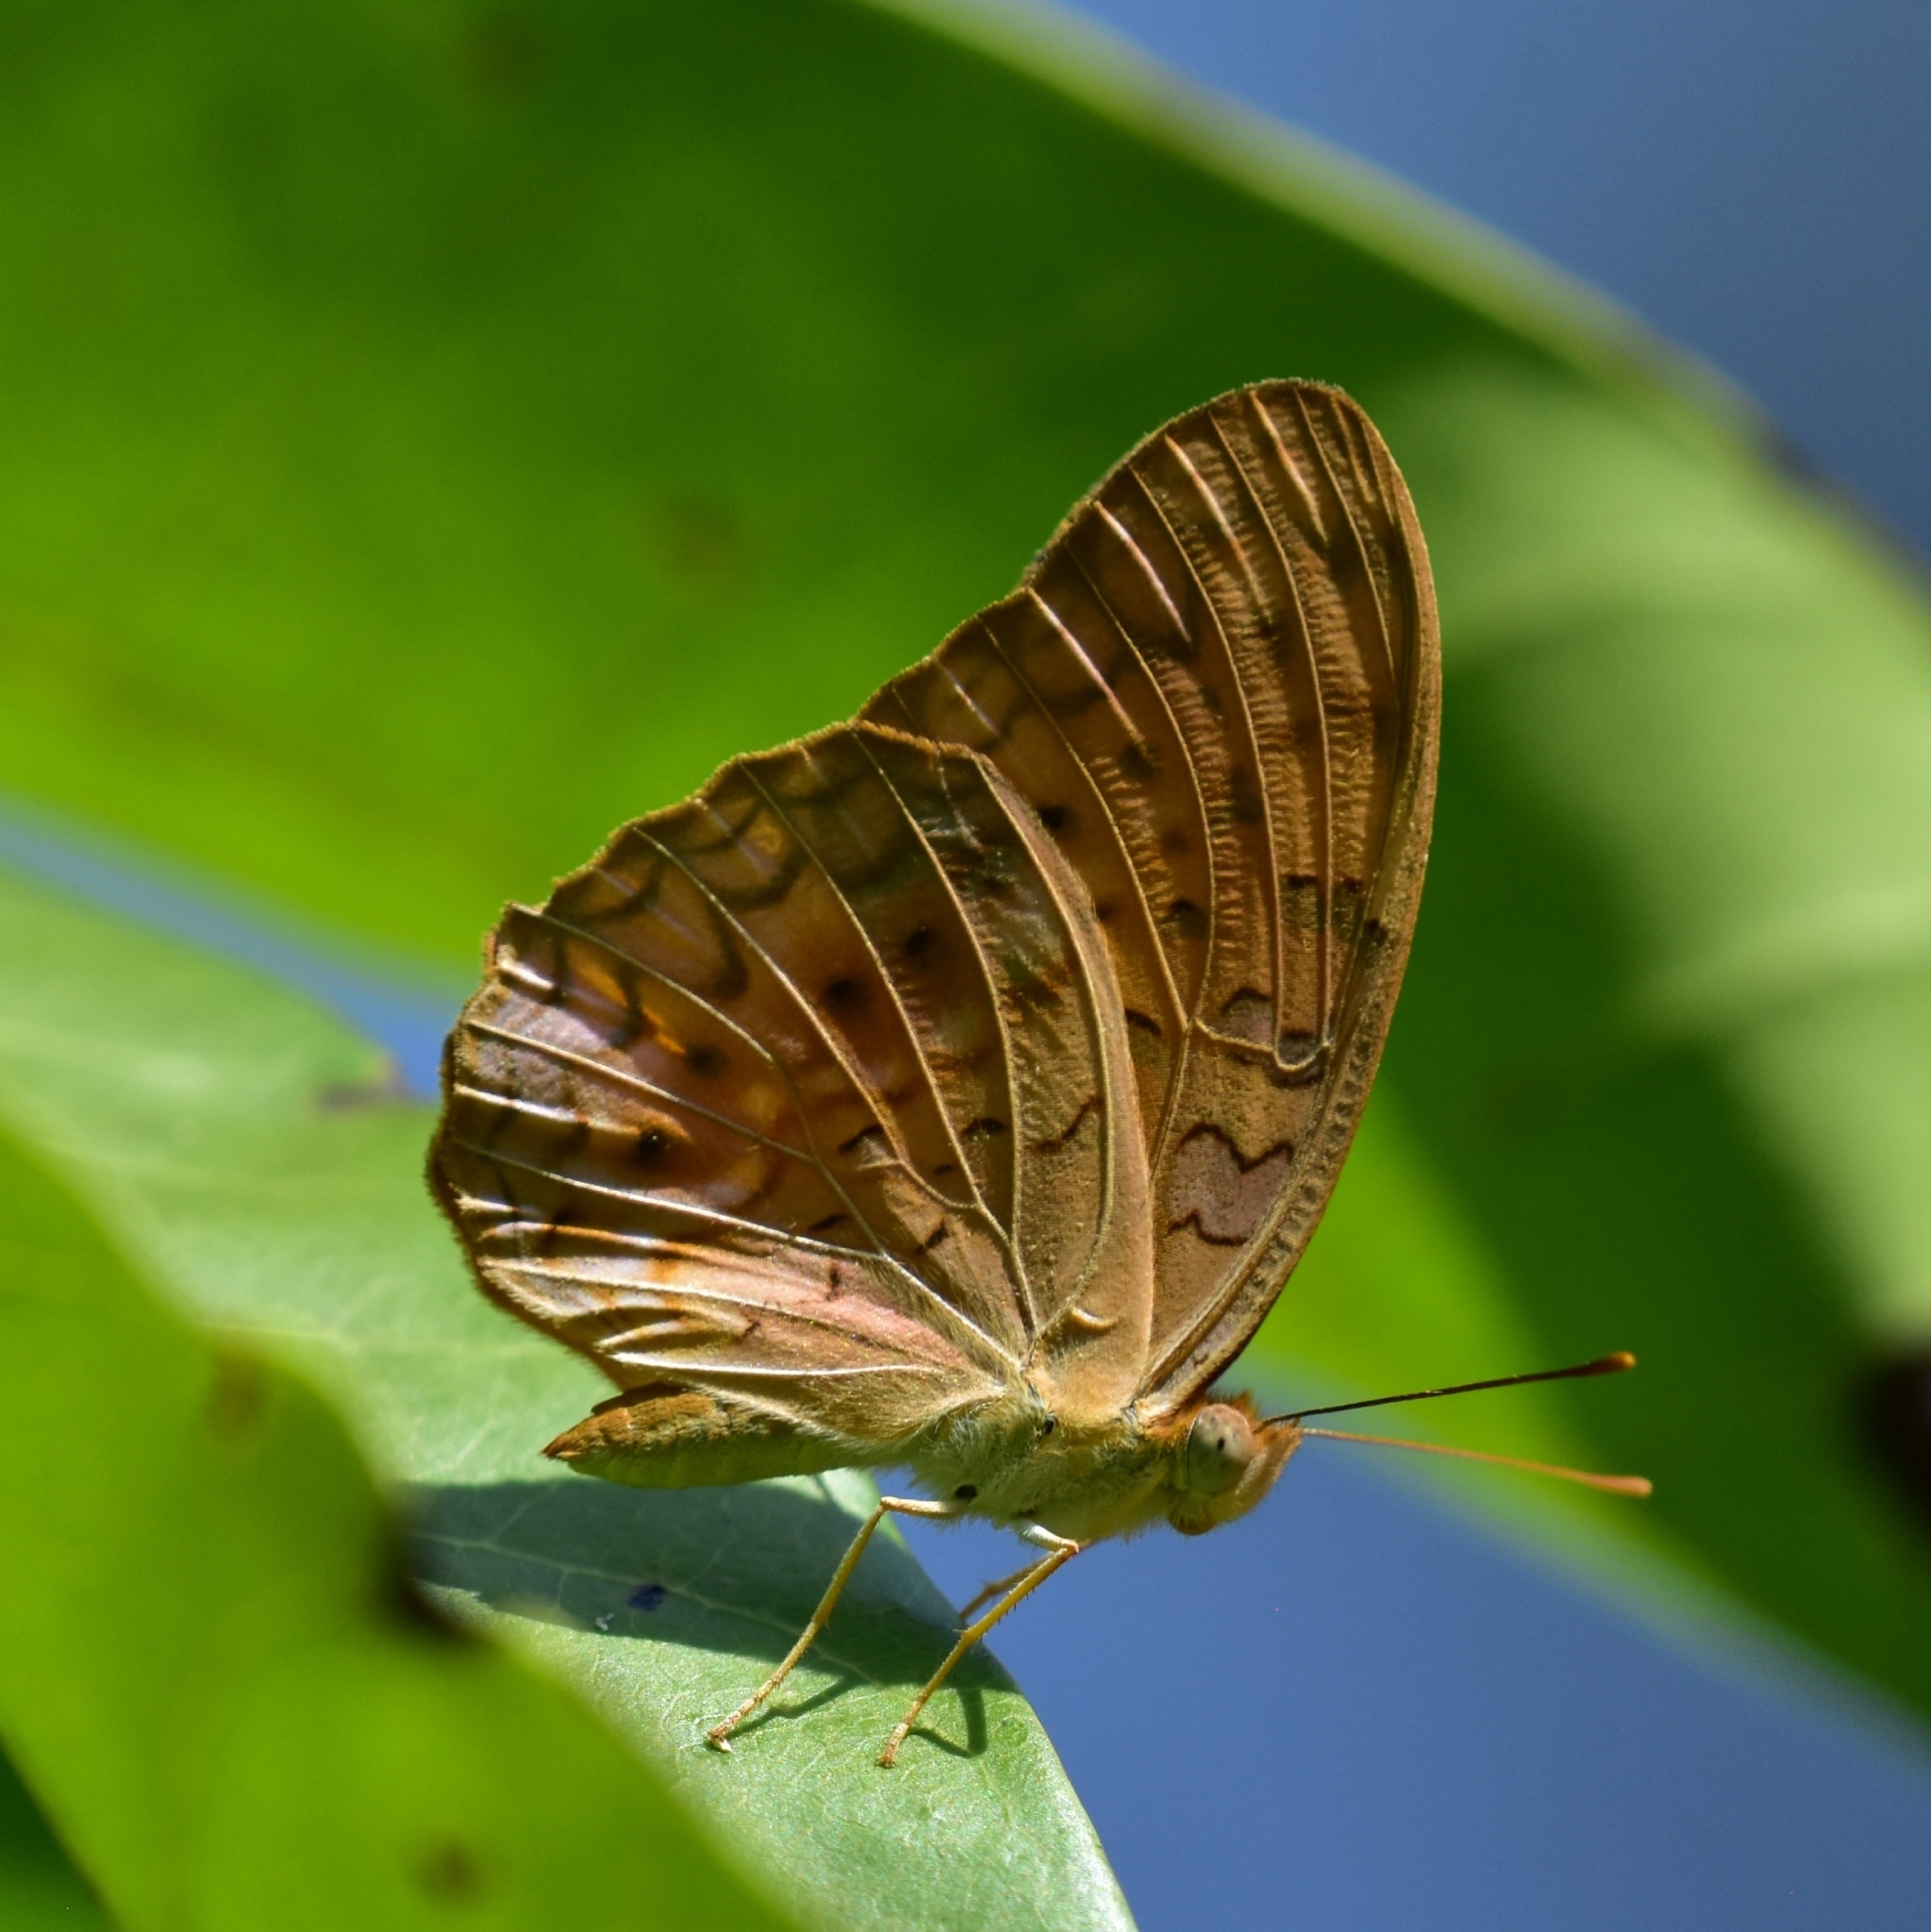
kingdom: Animalia
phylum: Arthropoda
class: Insecta
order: Lepidoptera
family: Nymphalidae
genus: Phalanta
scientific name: Phalanta phalantha
